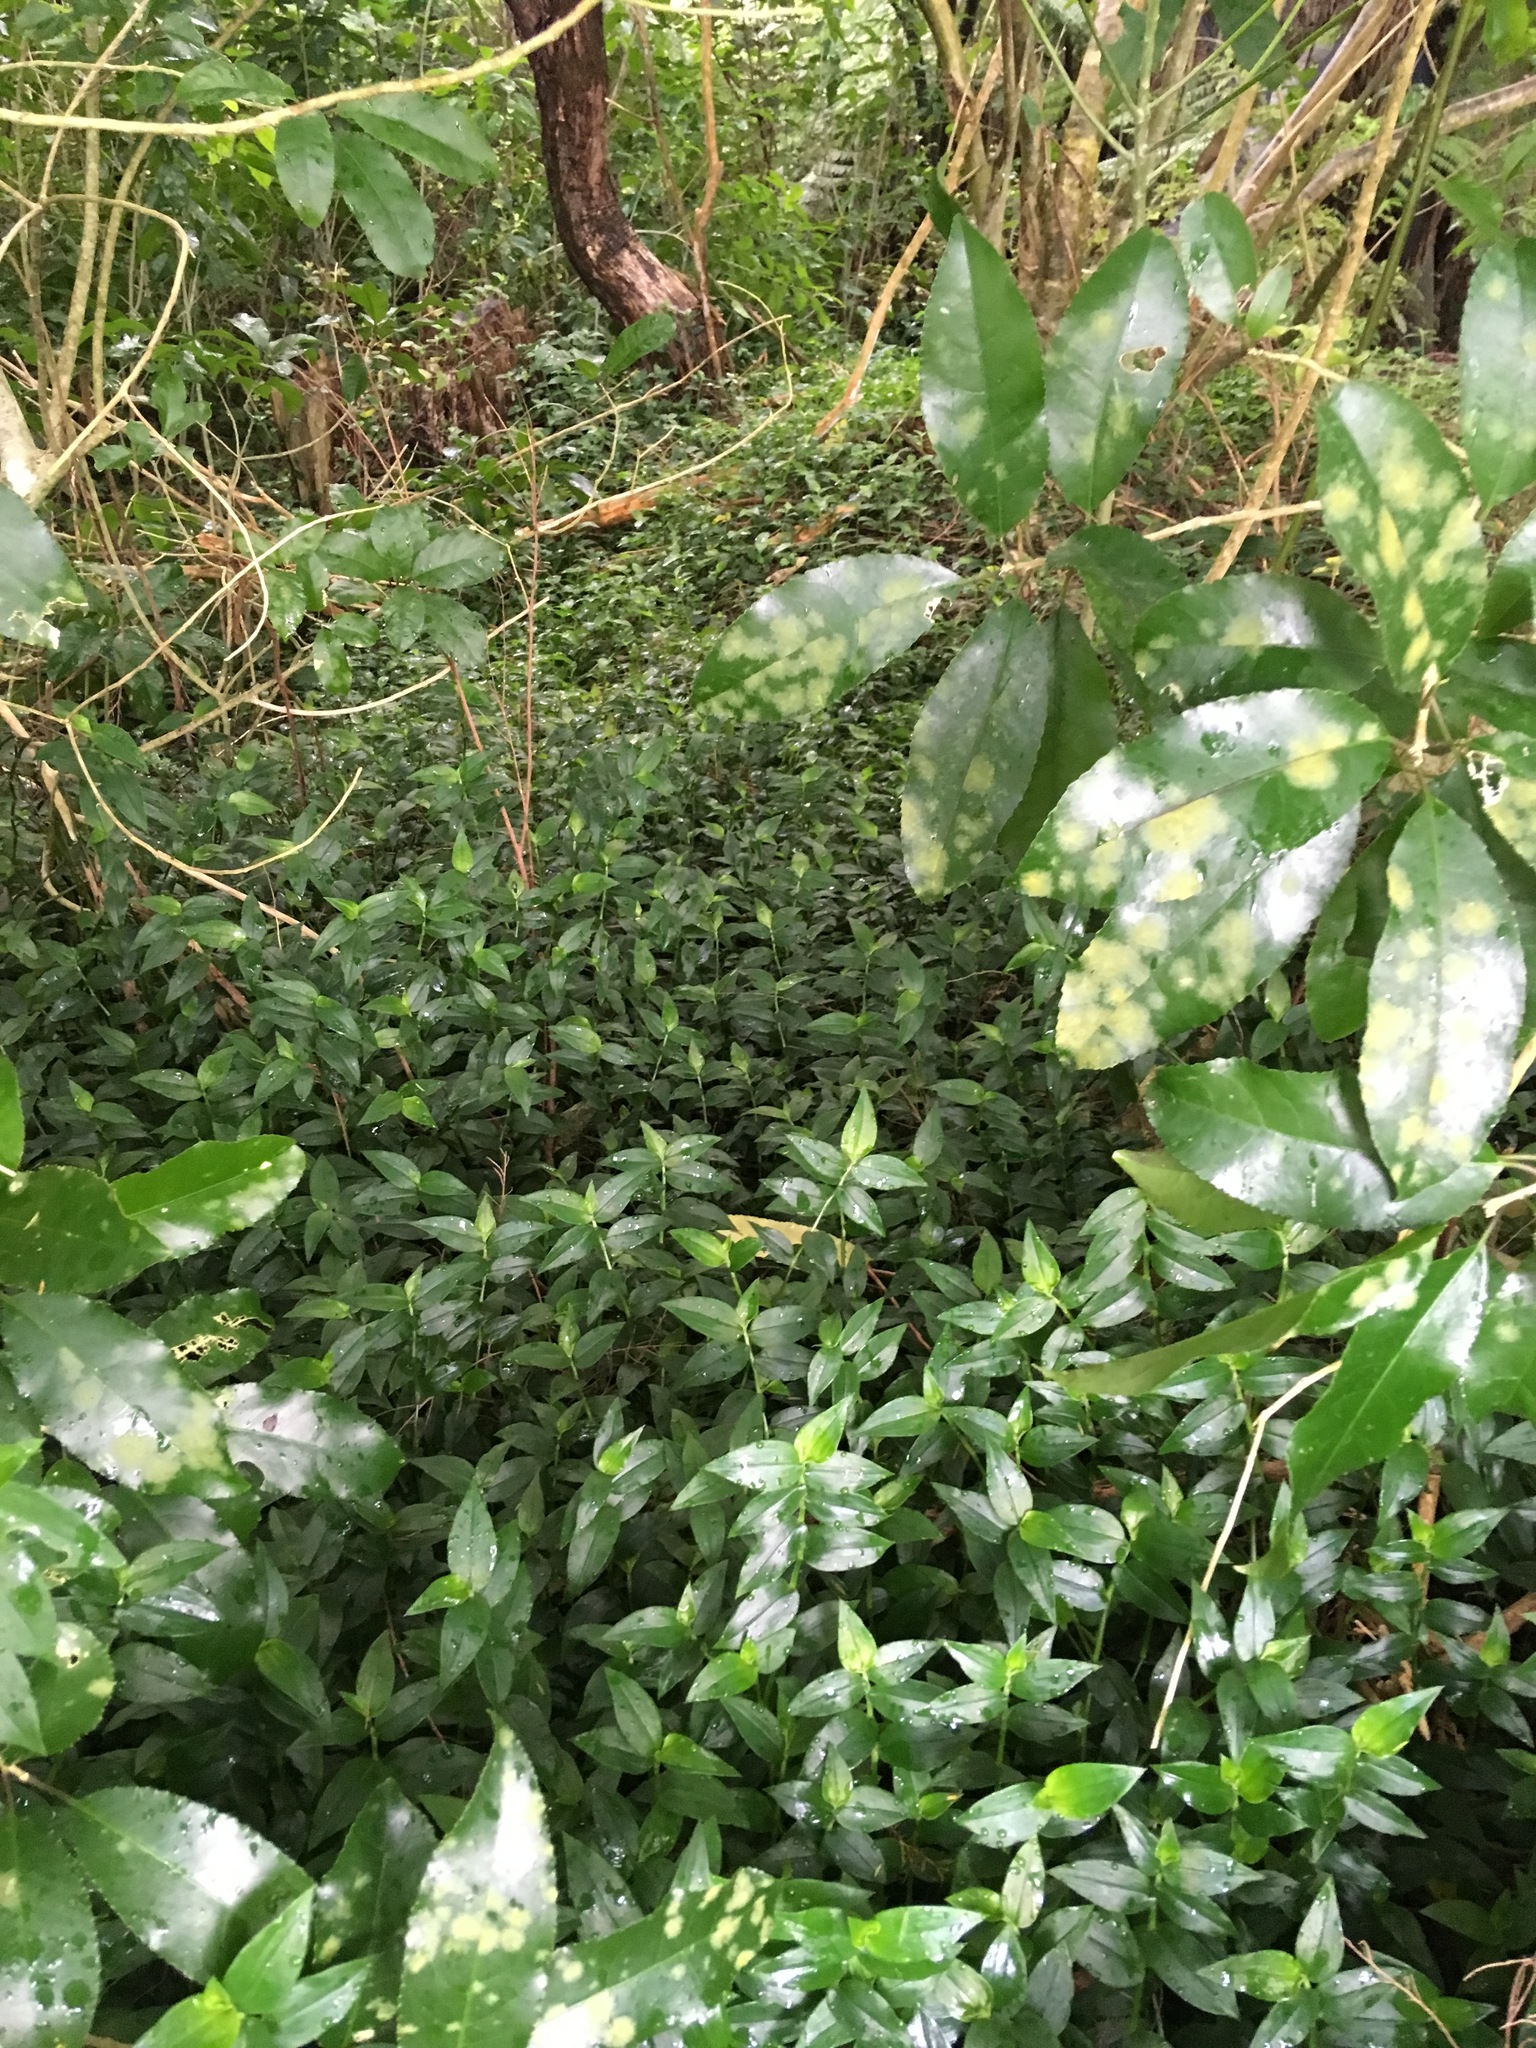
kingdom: Plantae
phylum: Tracheophyta
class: Magnoliopsida
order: Malpighiales
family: Violaceae
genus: Melicytus
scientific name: Melicytus ramiflorus
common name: Mahoe
